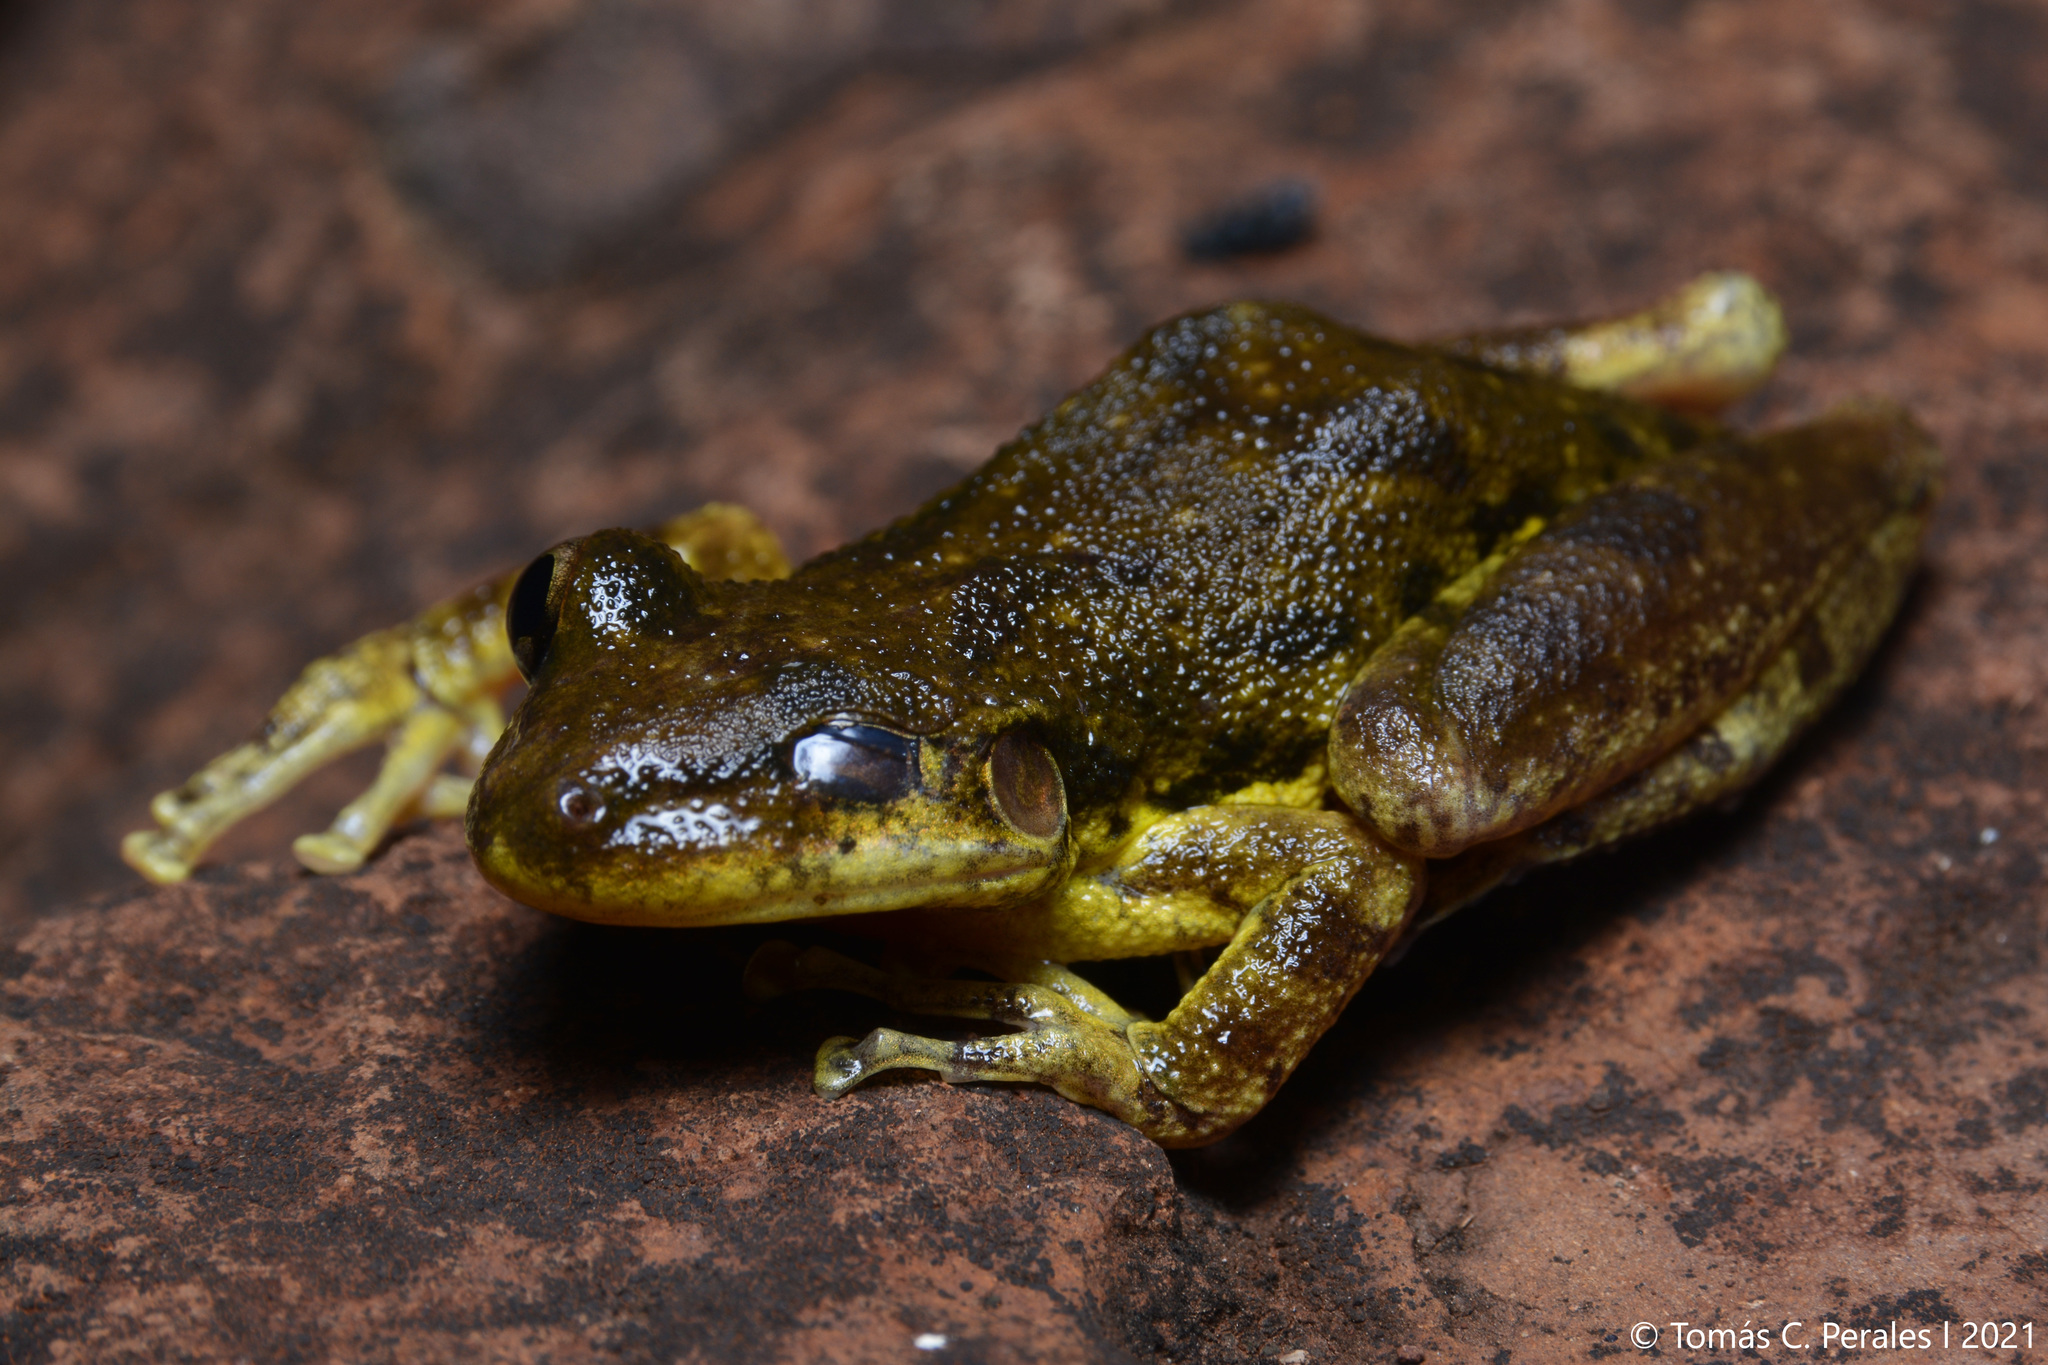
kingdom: Animalia
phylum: Chordata
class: Amphibia
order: Anura
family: Hylidae
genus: Scinax
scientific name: Scinax fuscovarius
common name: Fuscous-blotched treefrog
